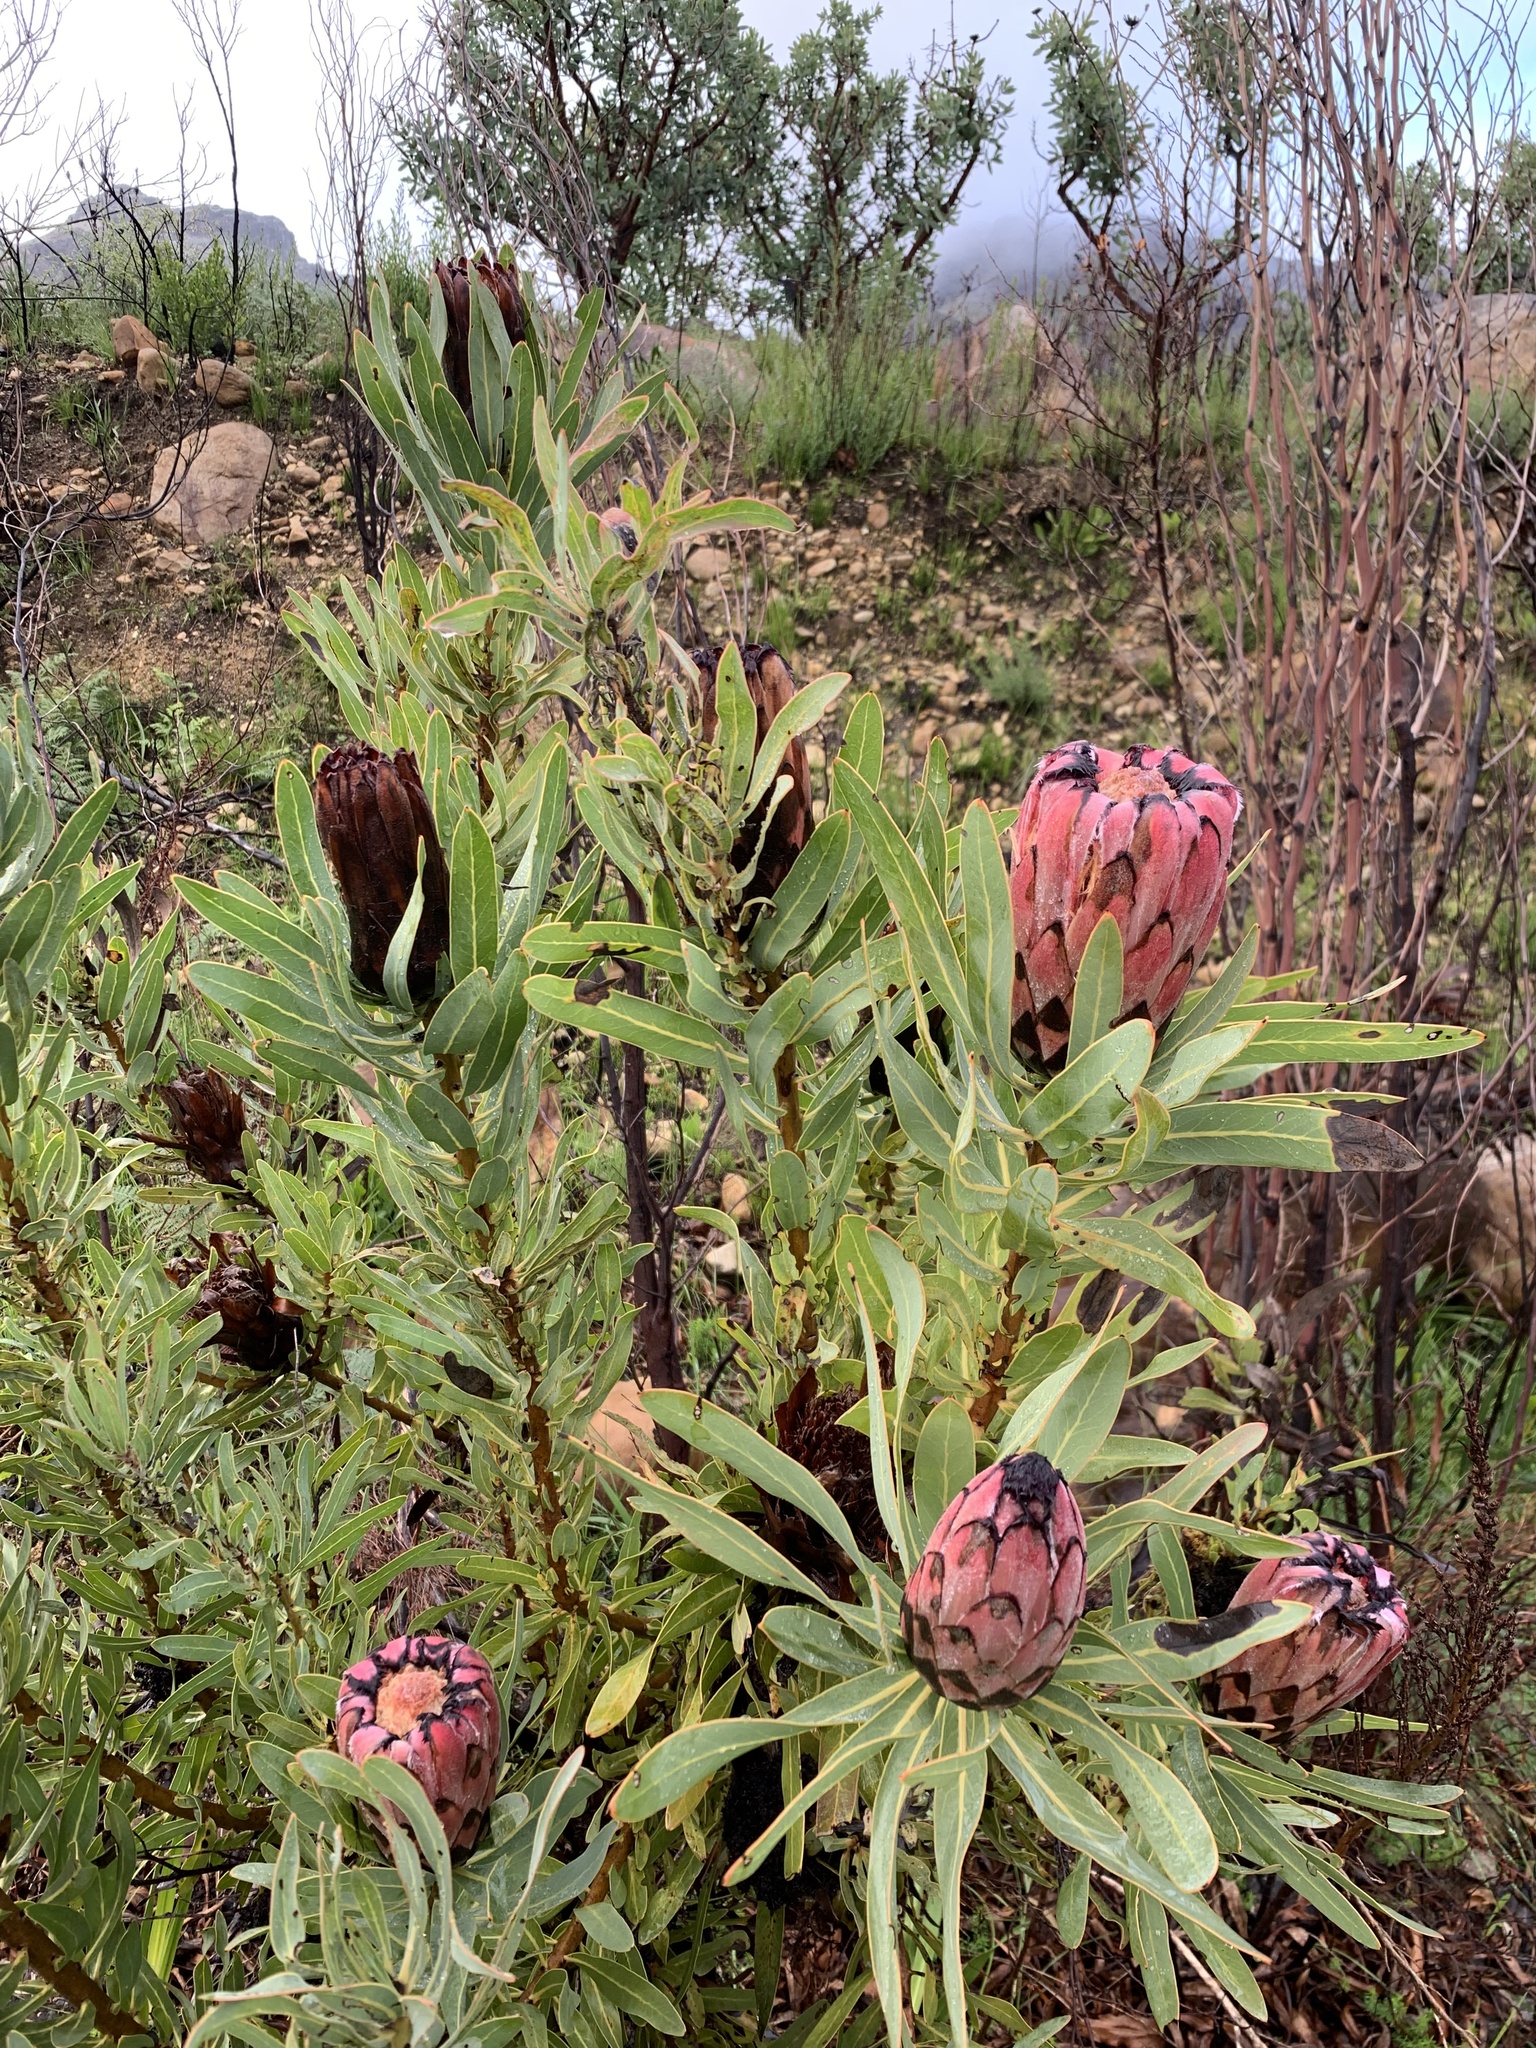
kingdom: Plantae
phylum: Tracheophyta
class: Magnoliopsida
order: Proteales
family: Proteaceae
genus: Protea
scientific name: Protea neriifolia
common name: Blue sugarbush
